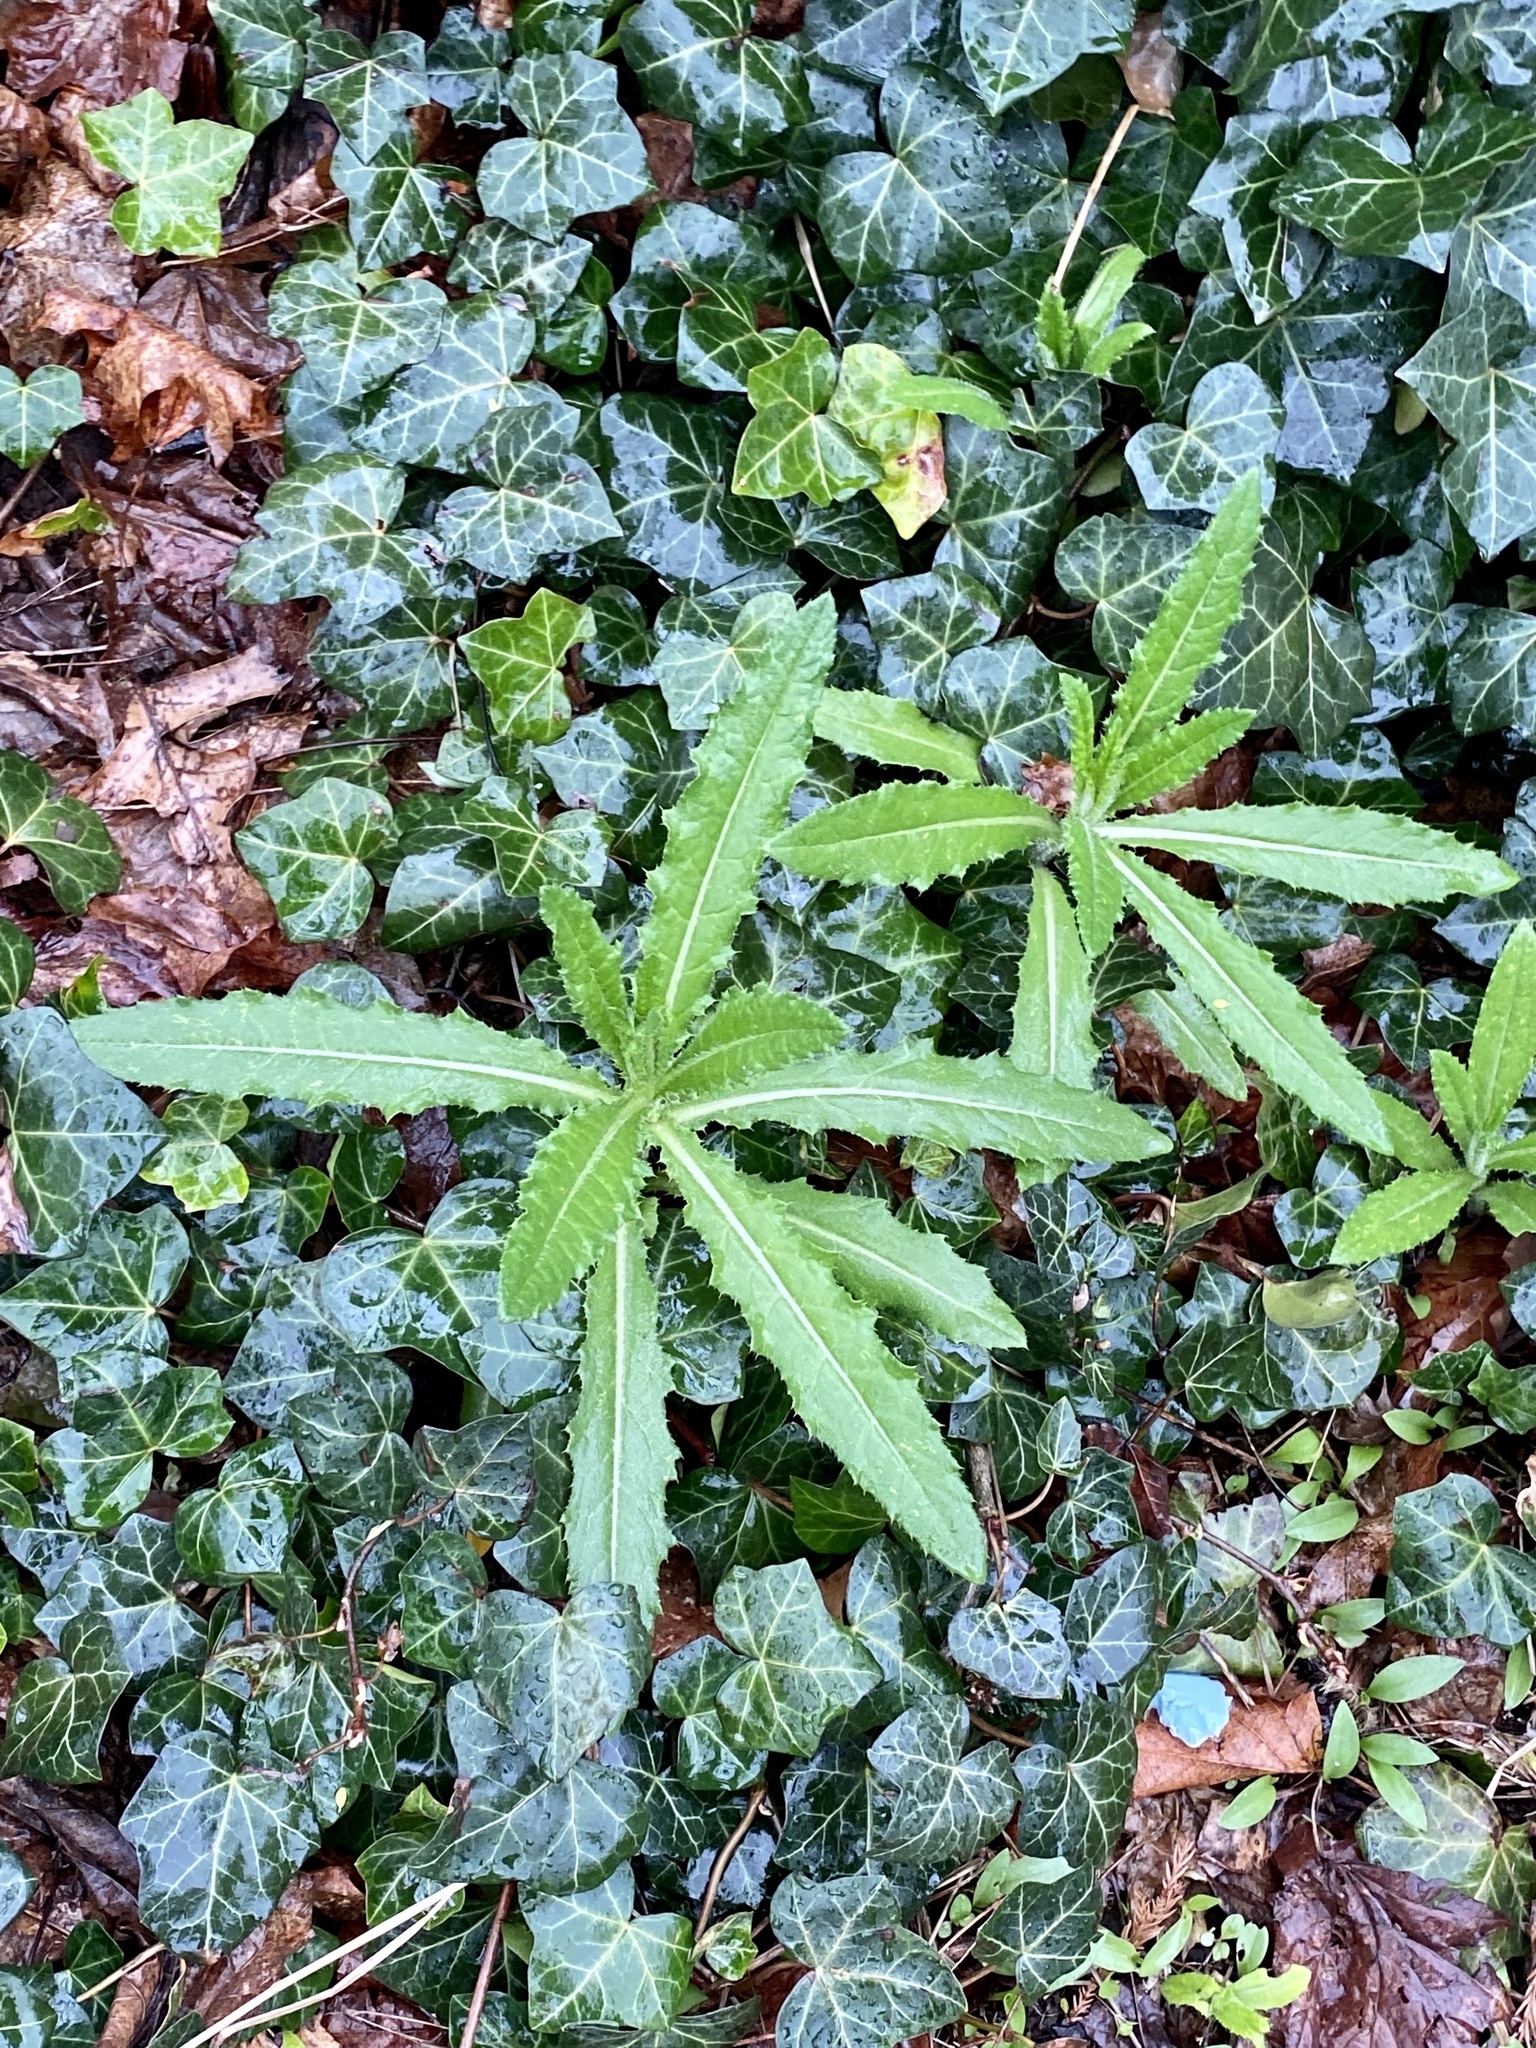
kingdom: Plantae
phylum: Tracheophyta
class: Magnoliopsida
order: Asterales
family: Asteraceae
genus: Cirsium
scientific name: Cirsium arvense
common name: Creeping thistle
